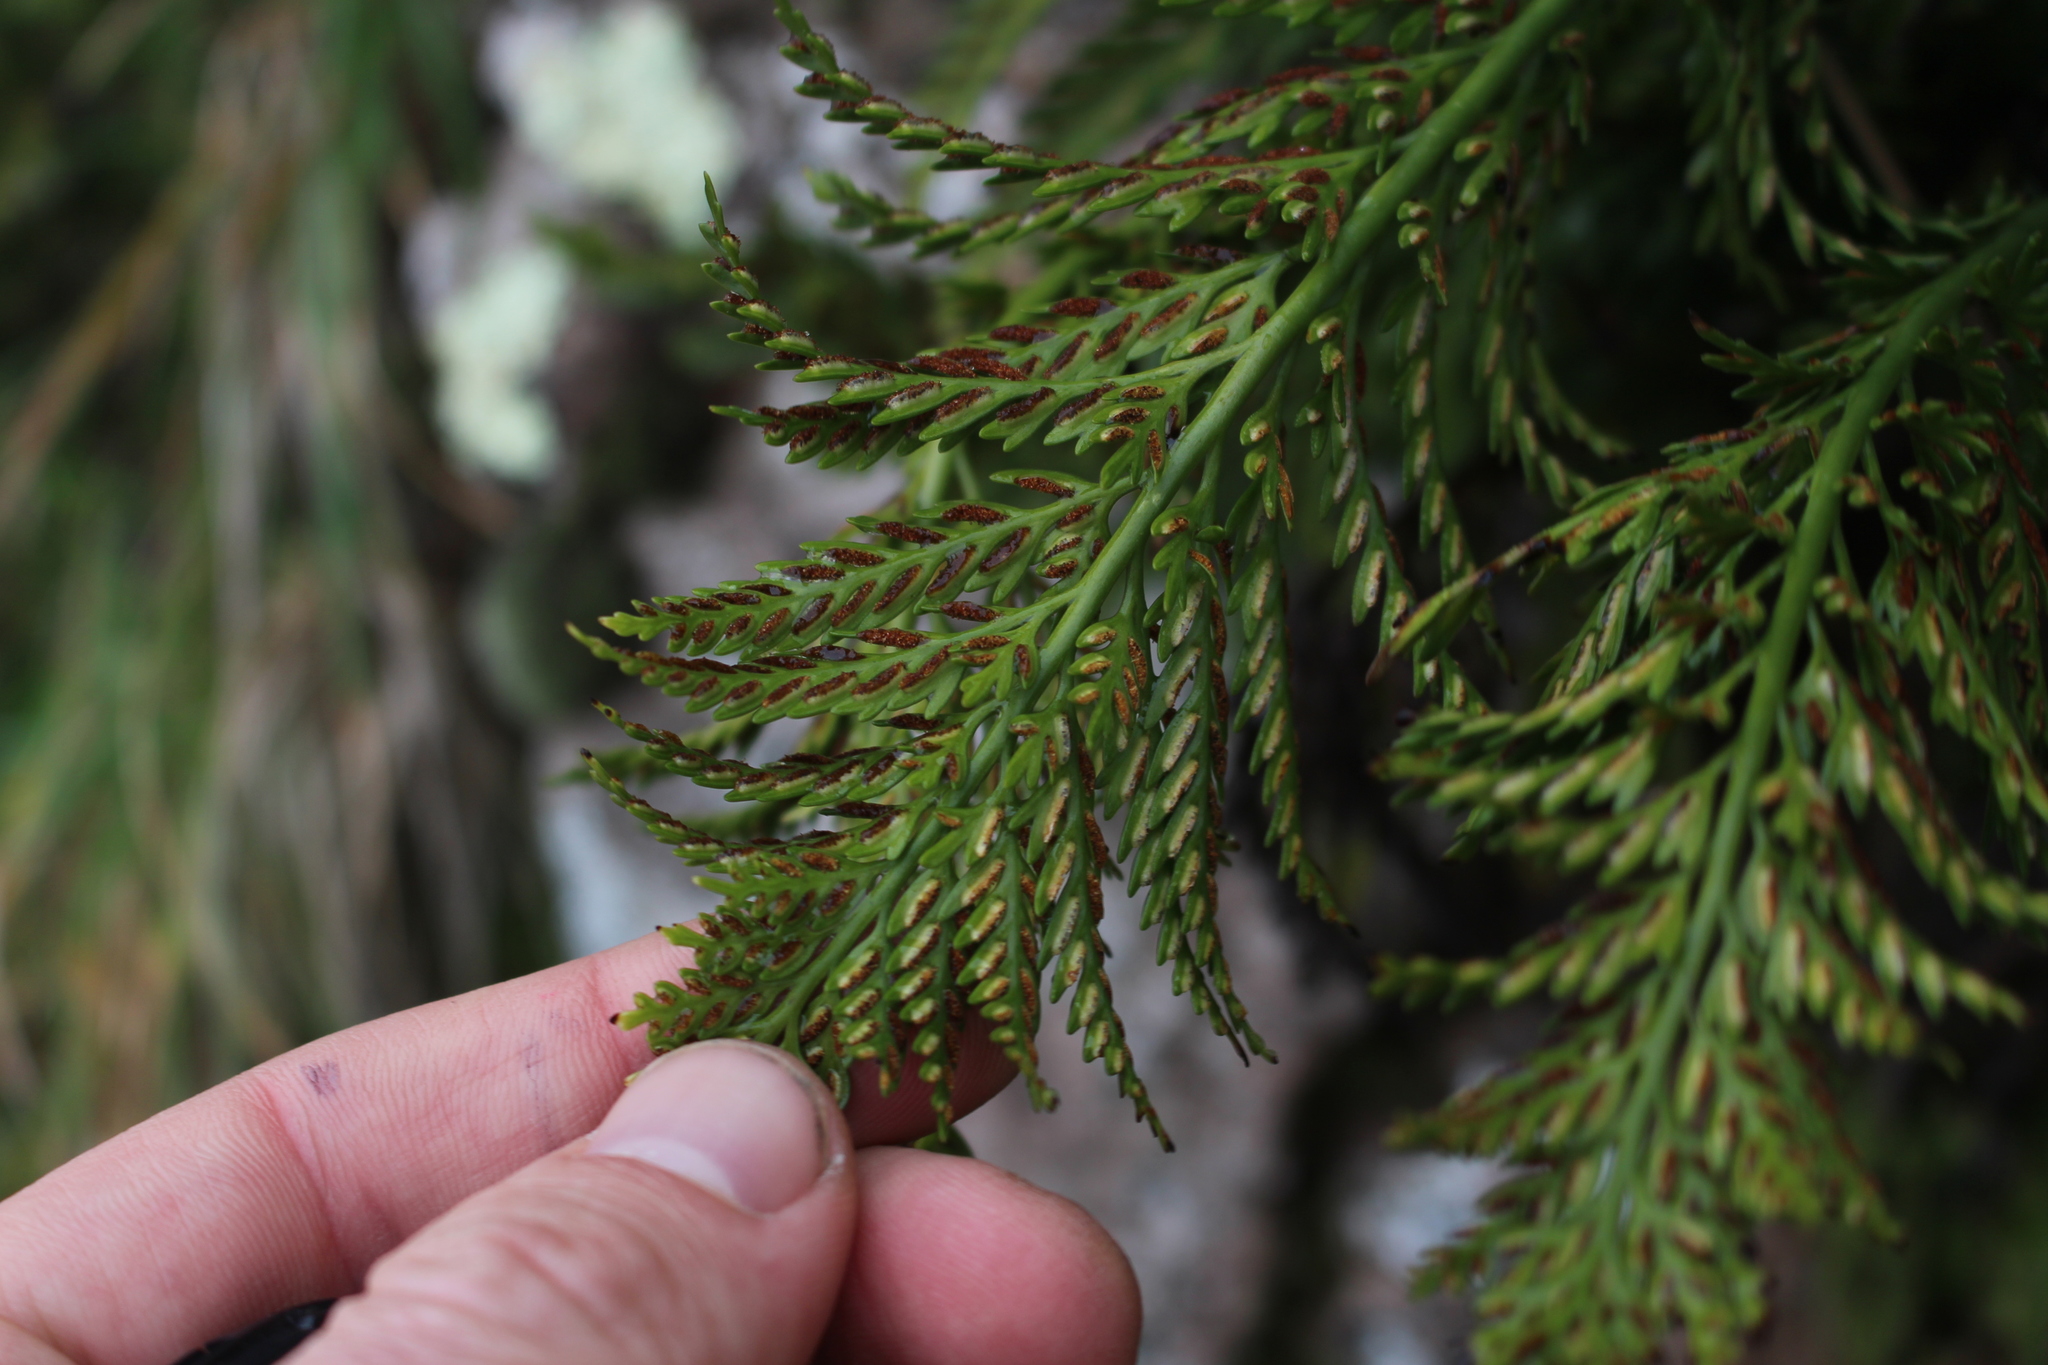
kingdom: Plantae
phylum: Tracheophyta
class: Polypodiopsida
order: Polypodiales
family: Aspleniaceae
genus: Asplenium
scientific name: Asplenium appendiculatum
